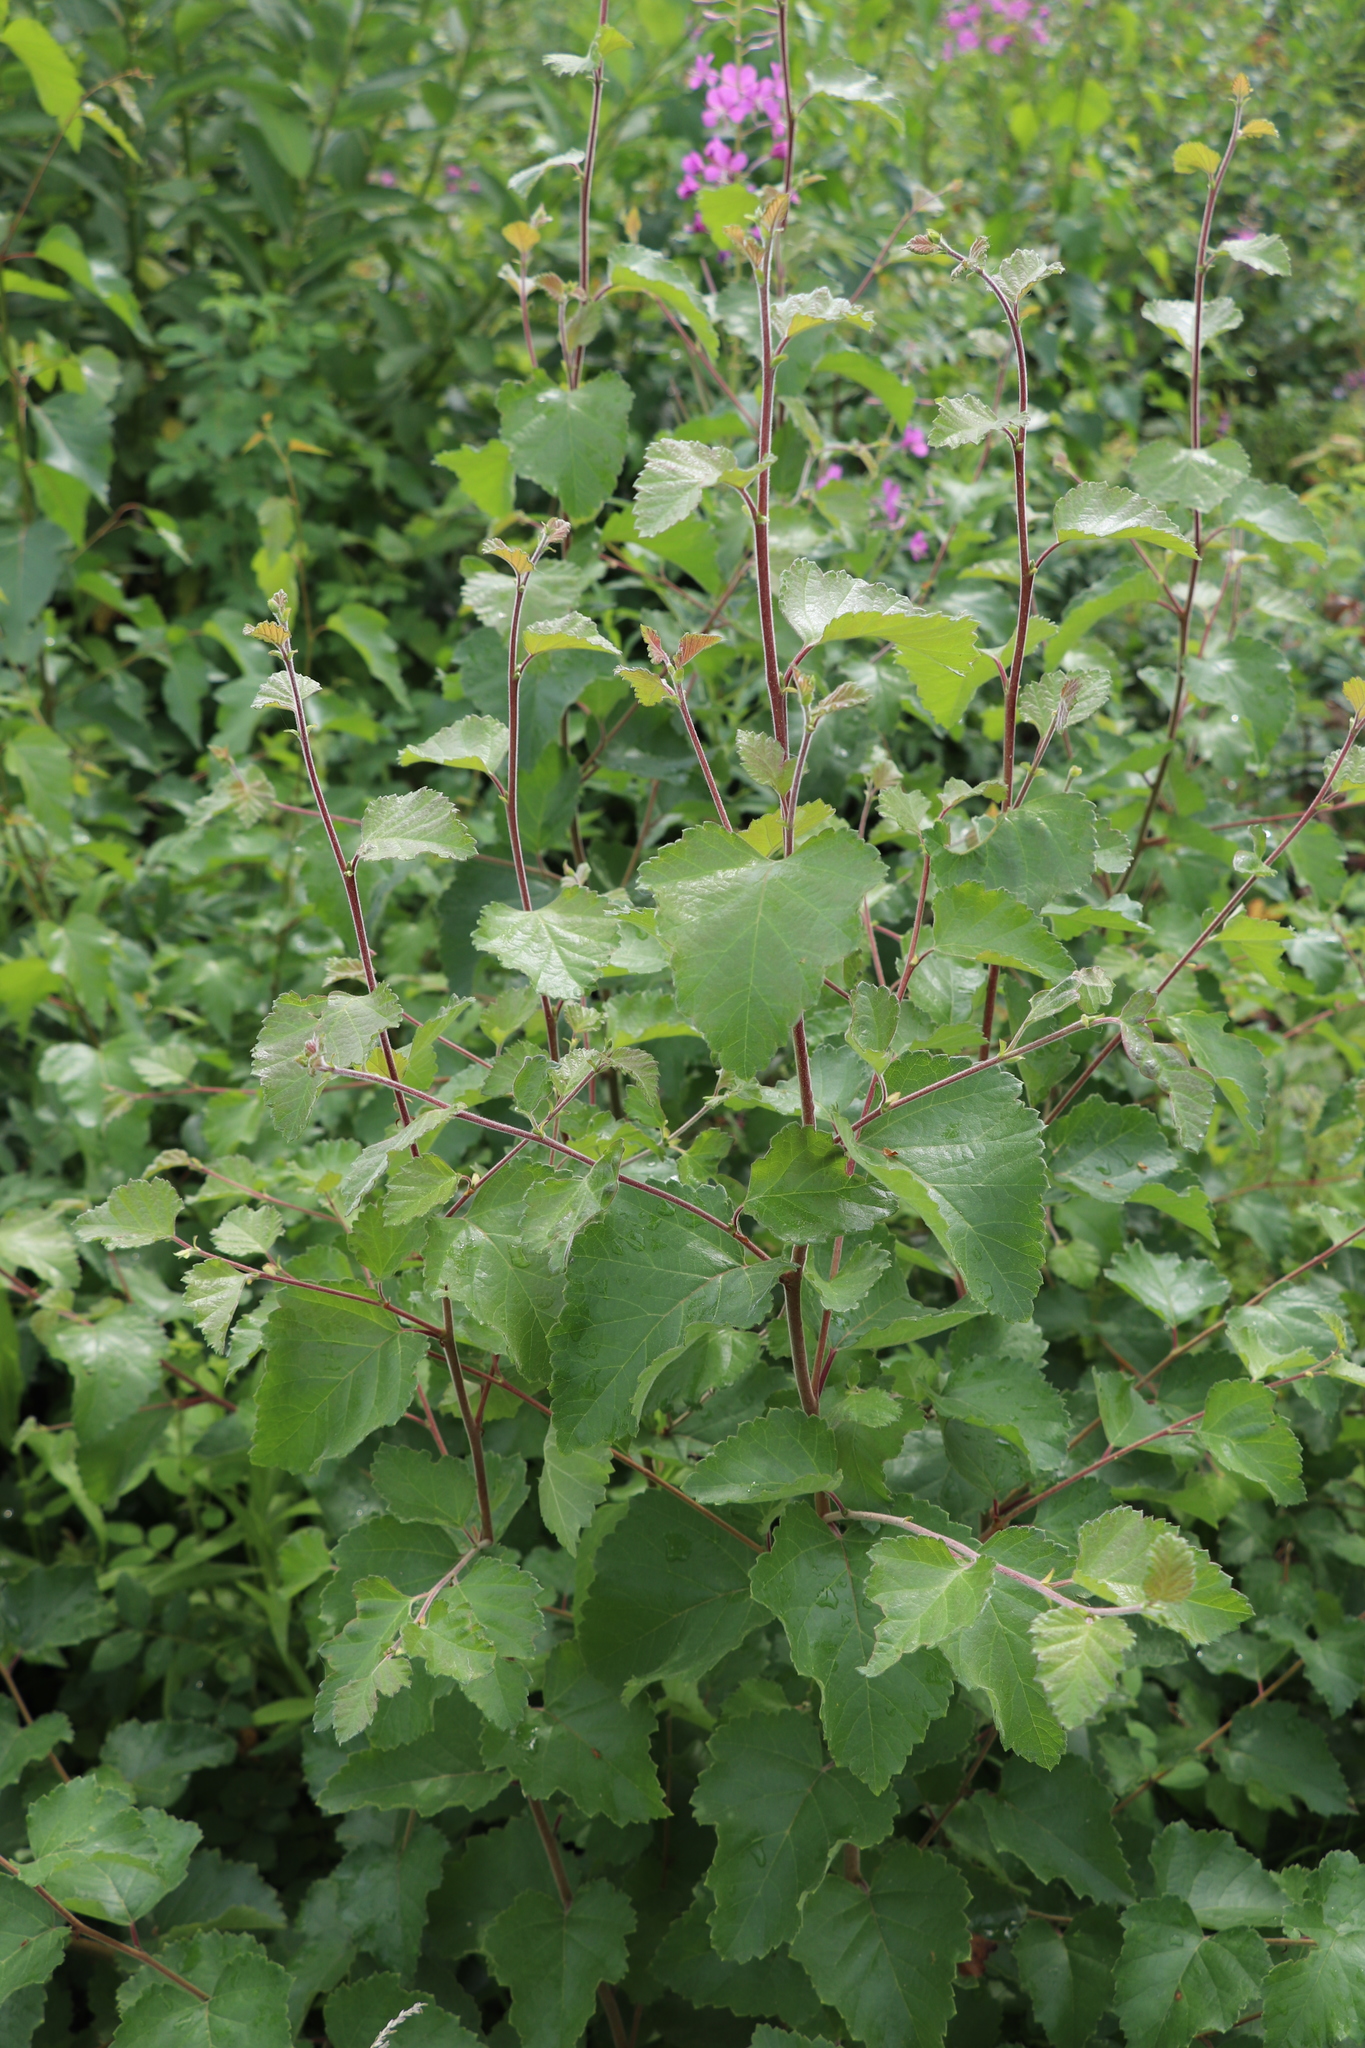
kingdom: Plantae
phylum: Tracheophyta
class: Magnoliopsida
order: Fagales
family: Betulaceae
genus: Betula
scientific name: Betula pubescens
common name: Downy birch
